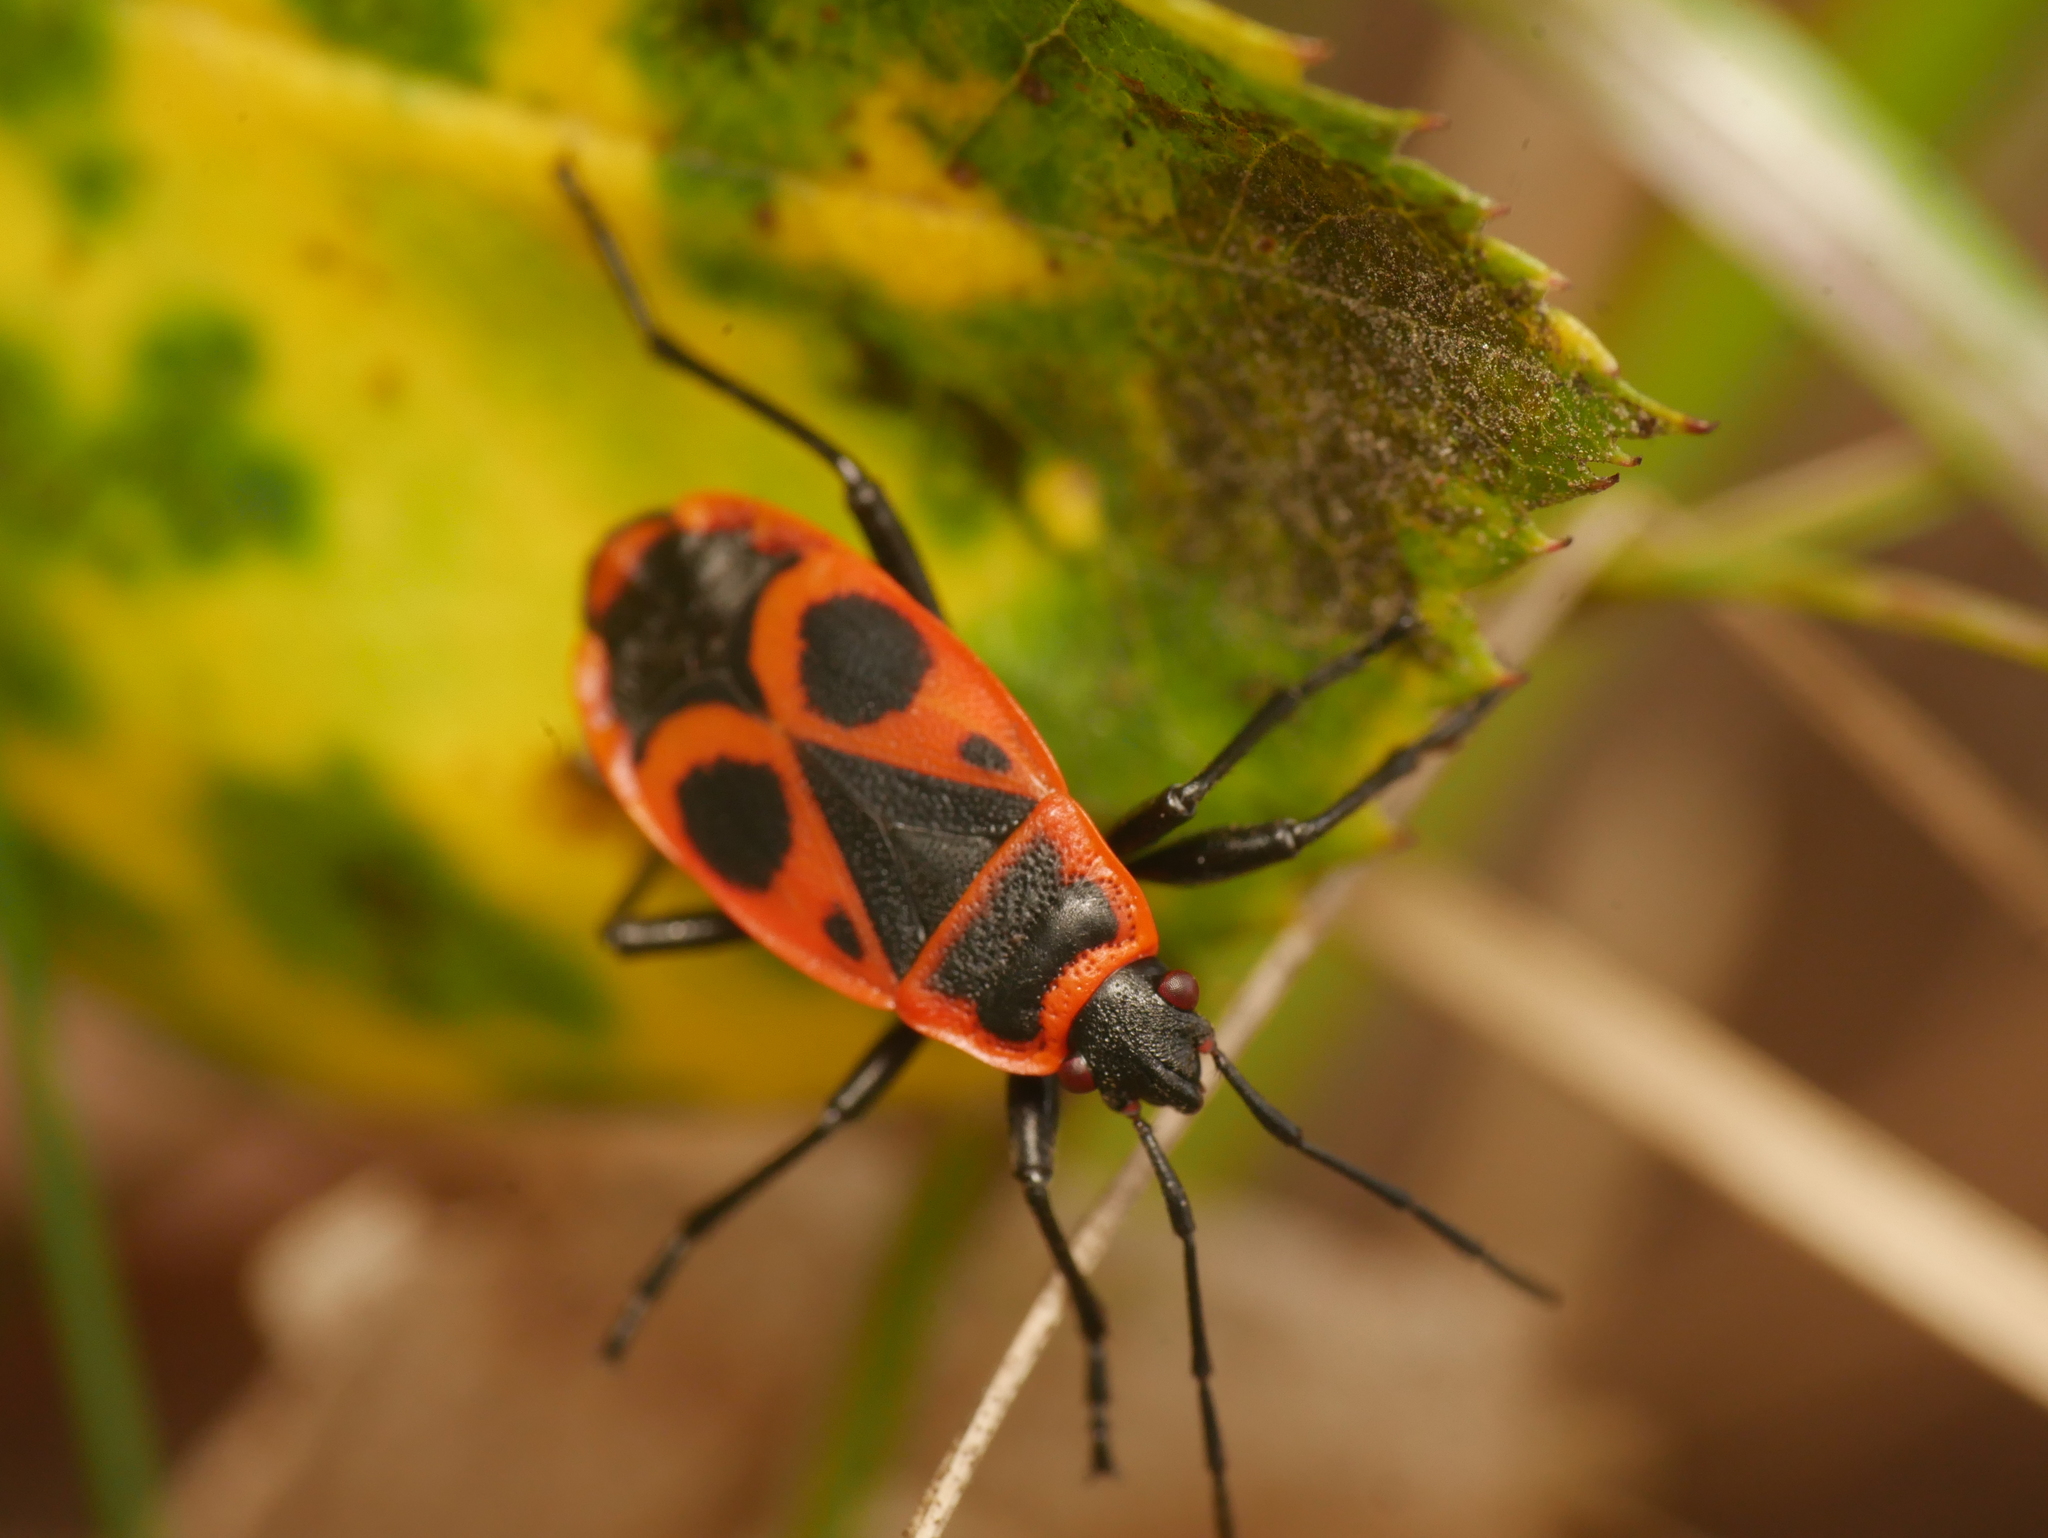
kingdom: Animalia
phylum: Arthropoda
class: Insecta
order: Hemiptera
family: Pyrrhocoridae
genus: Pyrrhocoris
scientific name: Pyrrhocoris apterus
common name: Firebug
